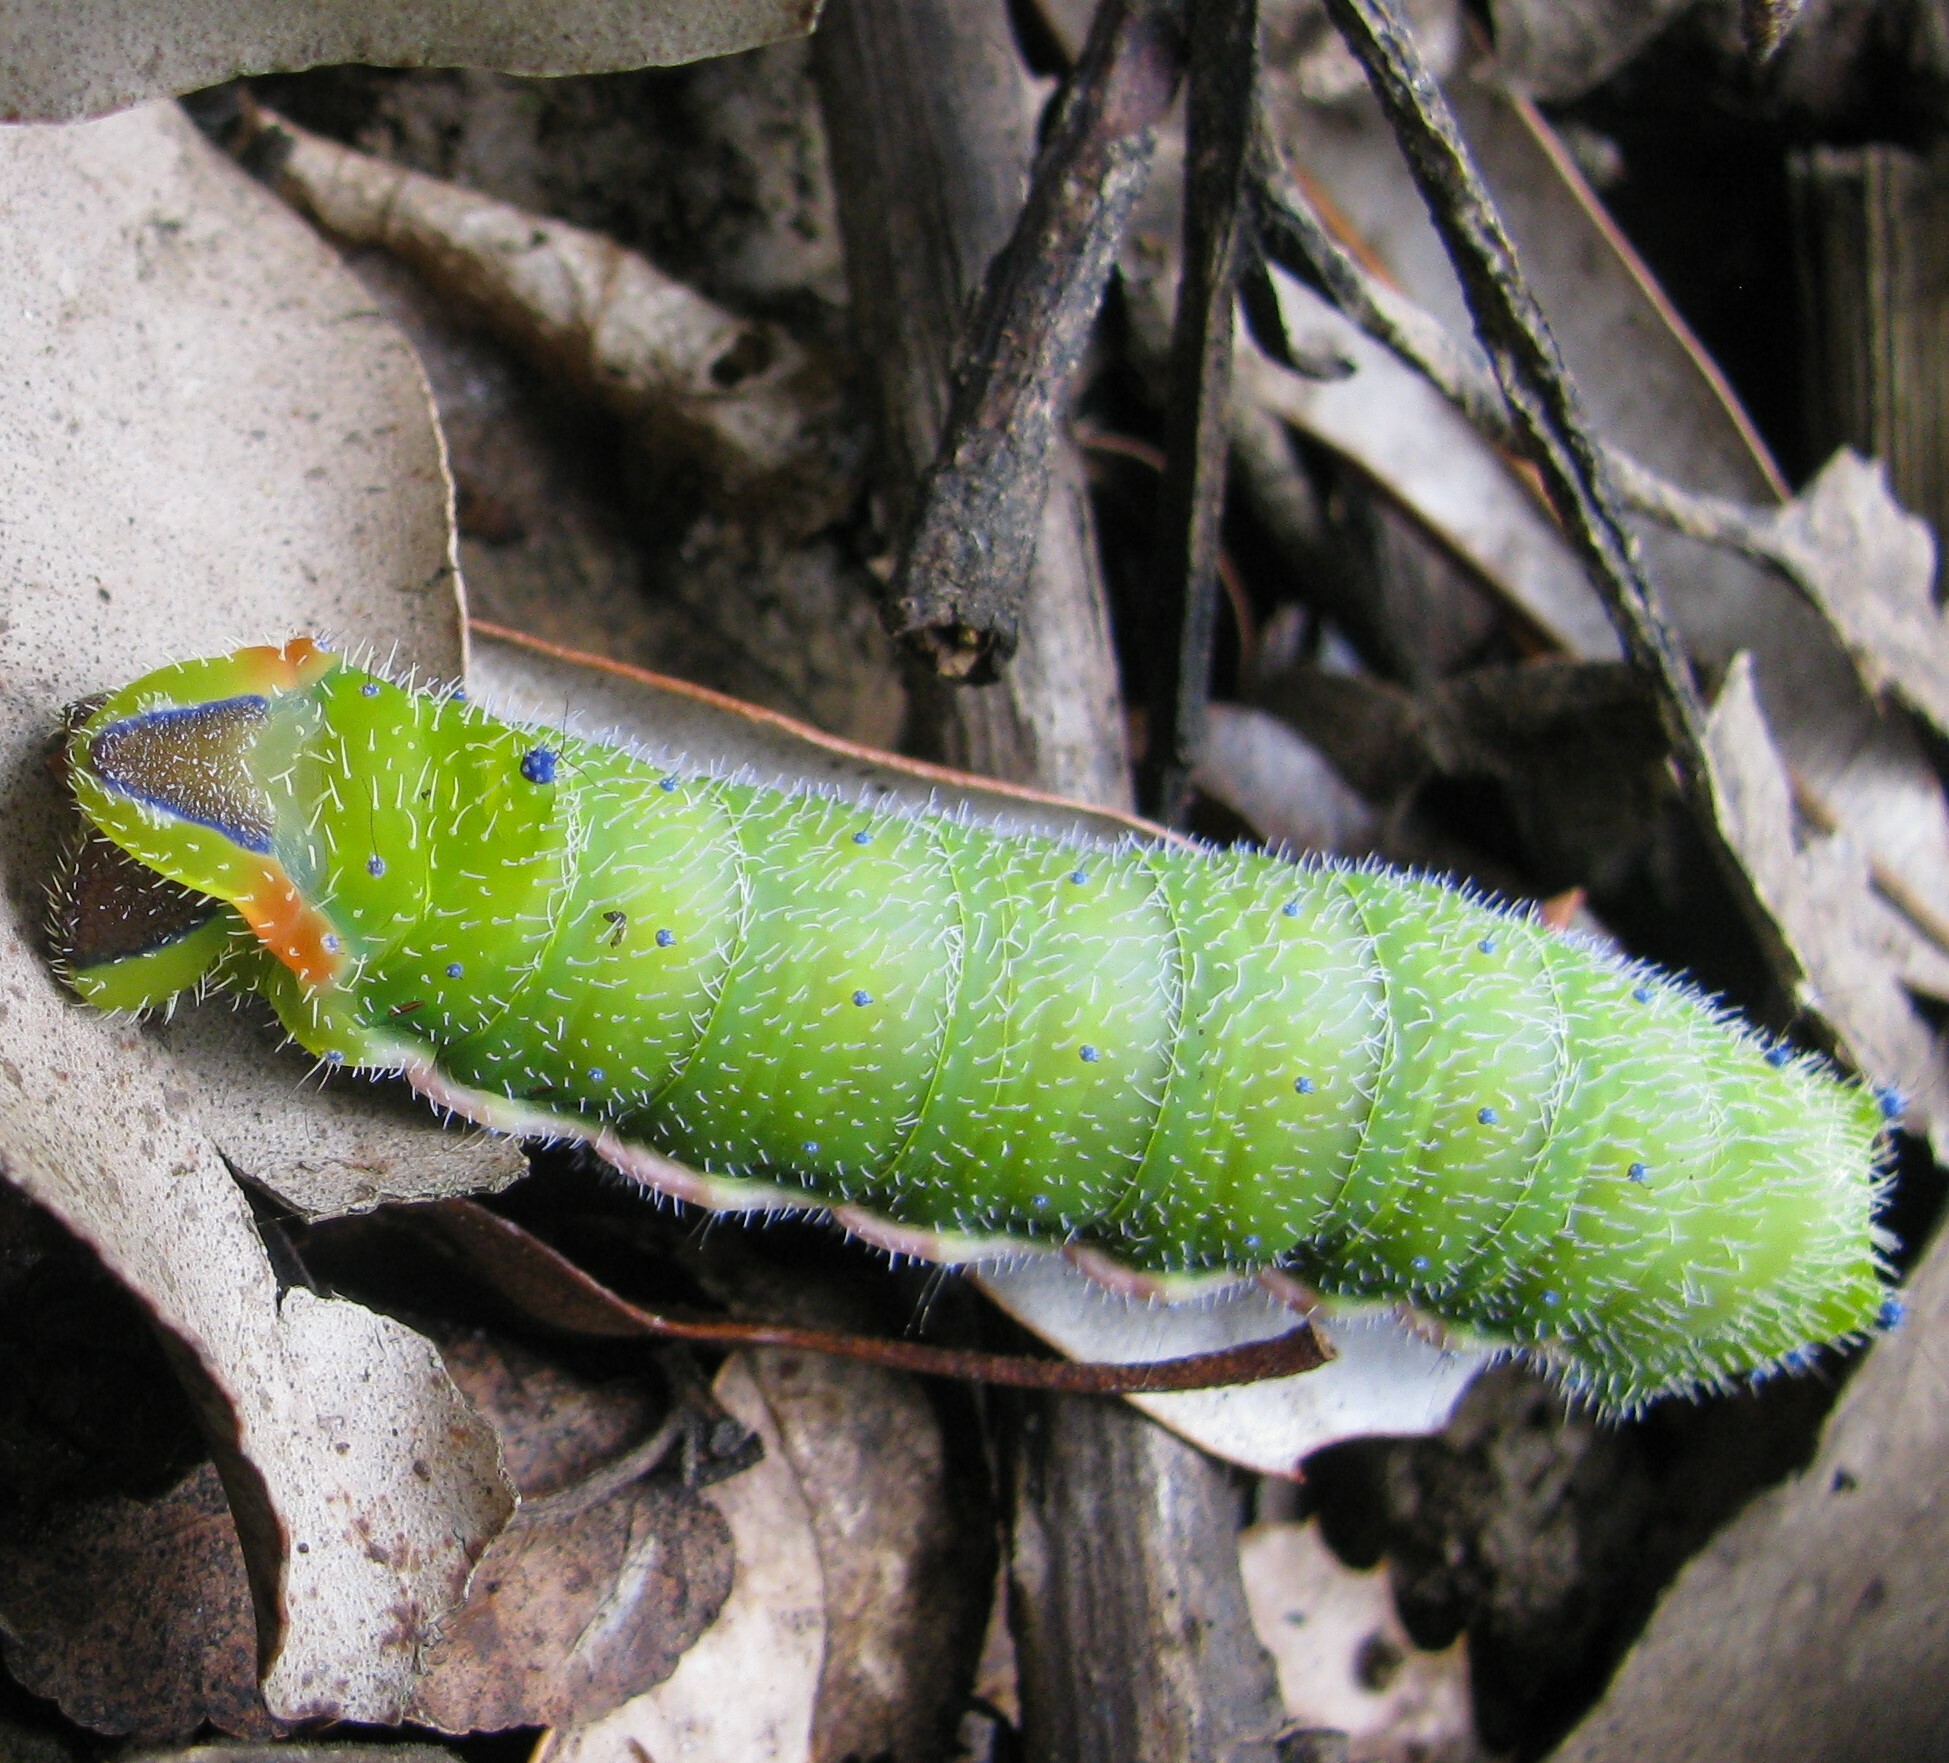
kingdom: Animalia
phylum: Arthropoda
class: Insecta
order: Lepidoptera
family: Saturniidae
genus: Opodiphthera
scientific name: Opodiphthera
